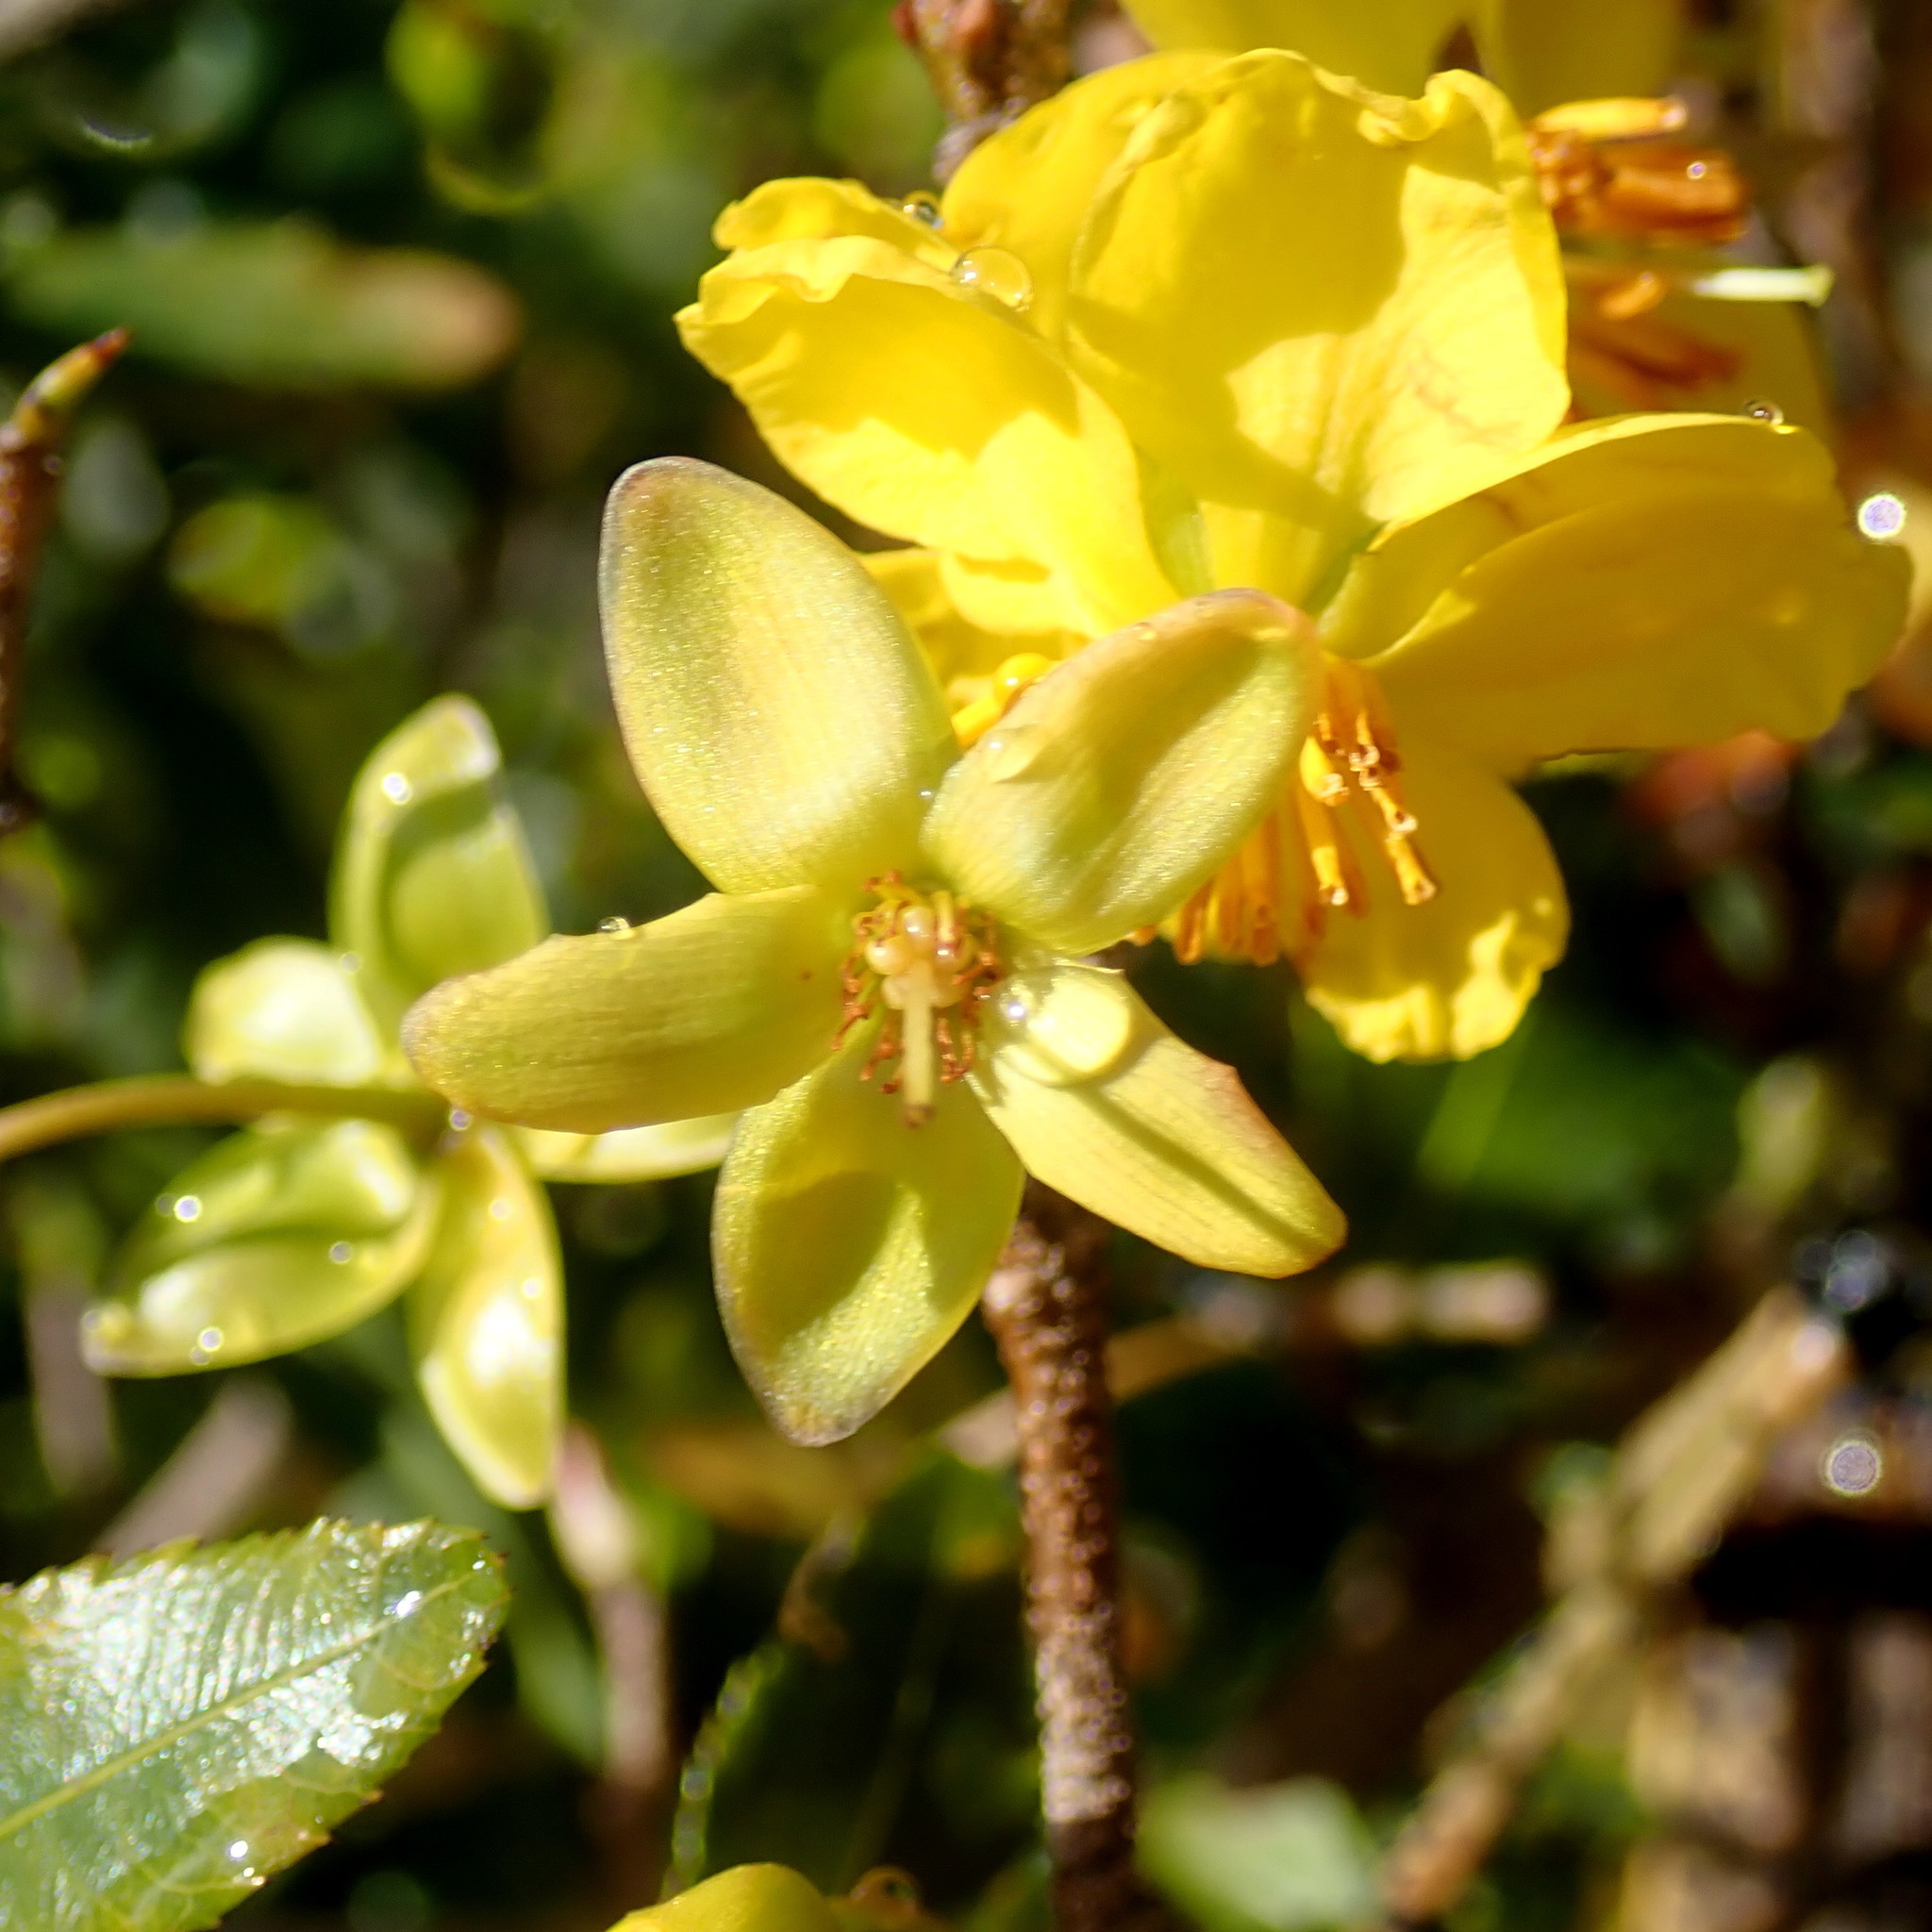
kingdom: Plantae
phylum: Tracheophyta
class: Magnoliopsida
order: Malpighiales
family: Ochnaceae
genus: Ochna
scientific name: Ochna serrulata
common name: Mickey mouse plant
